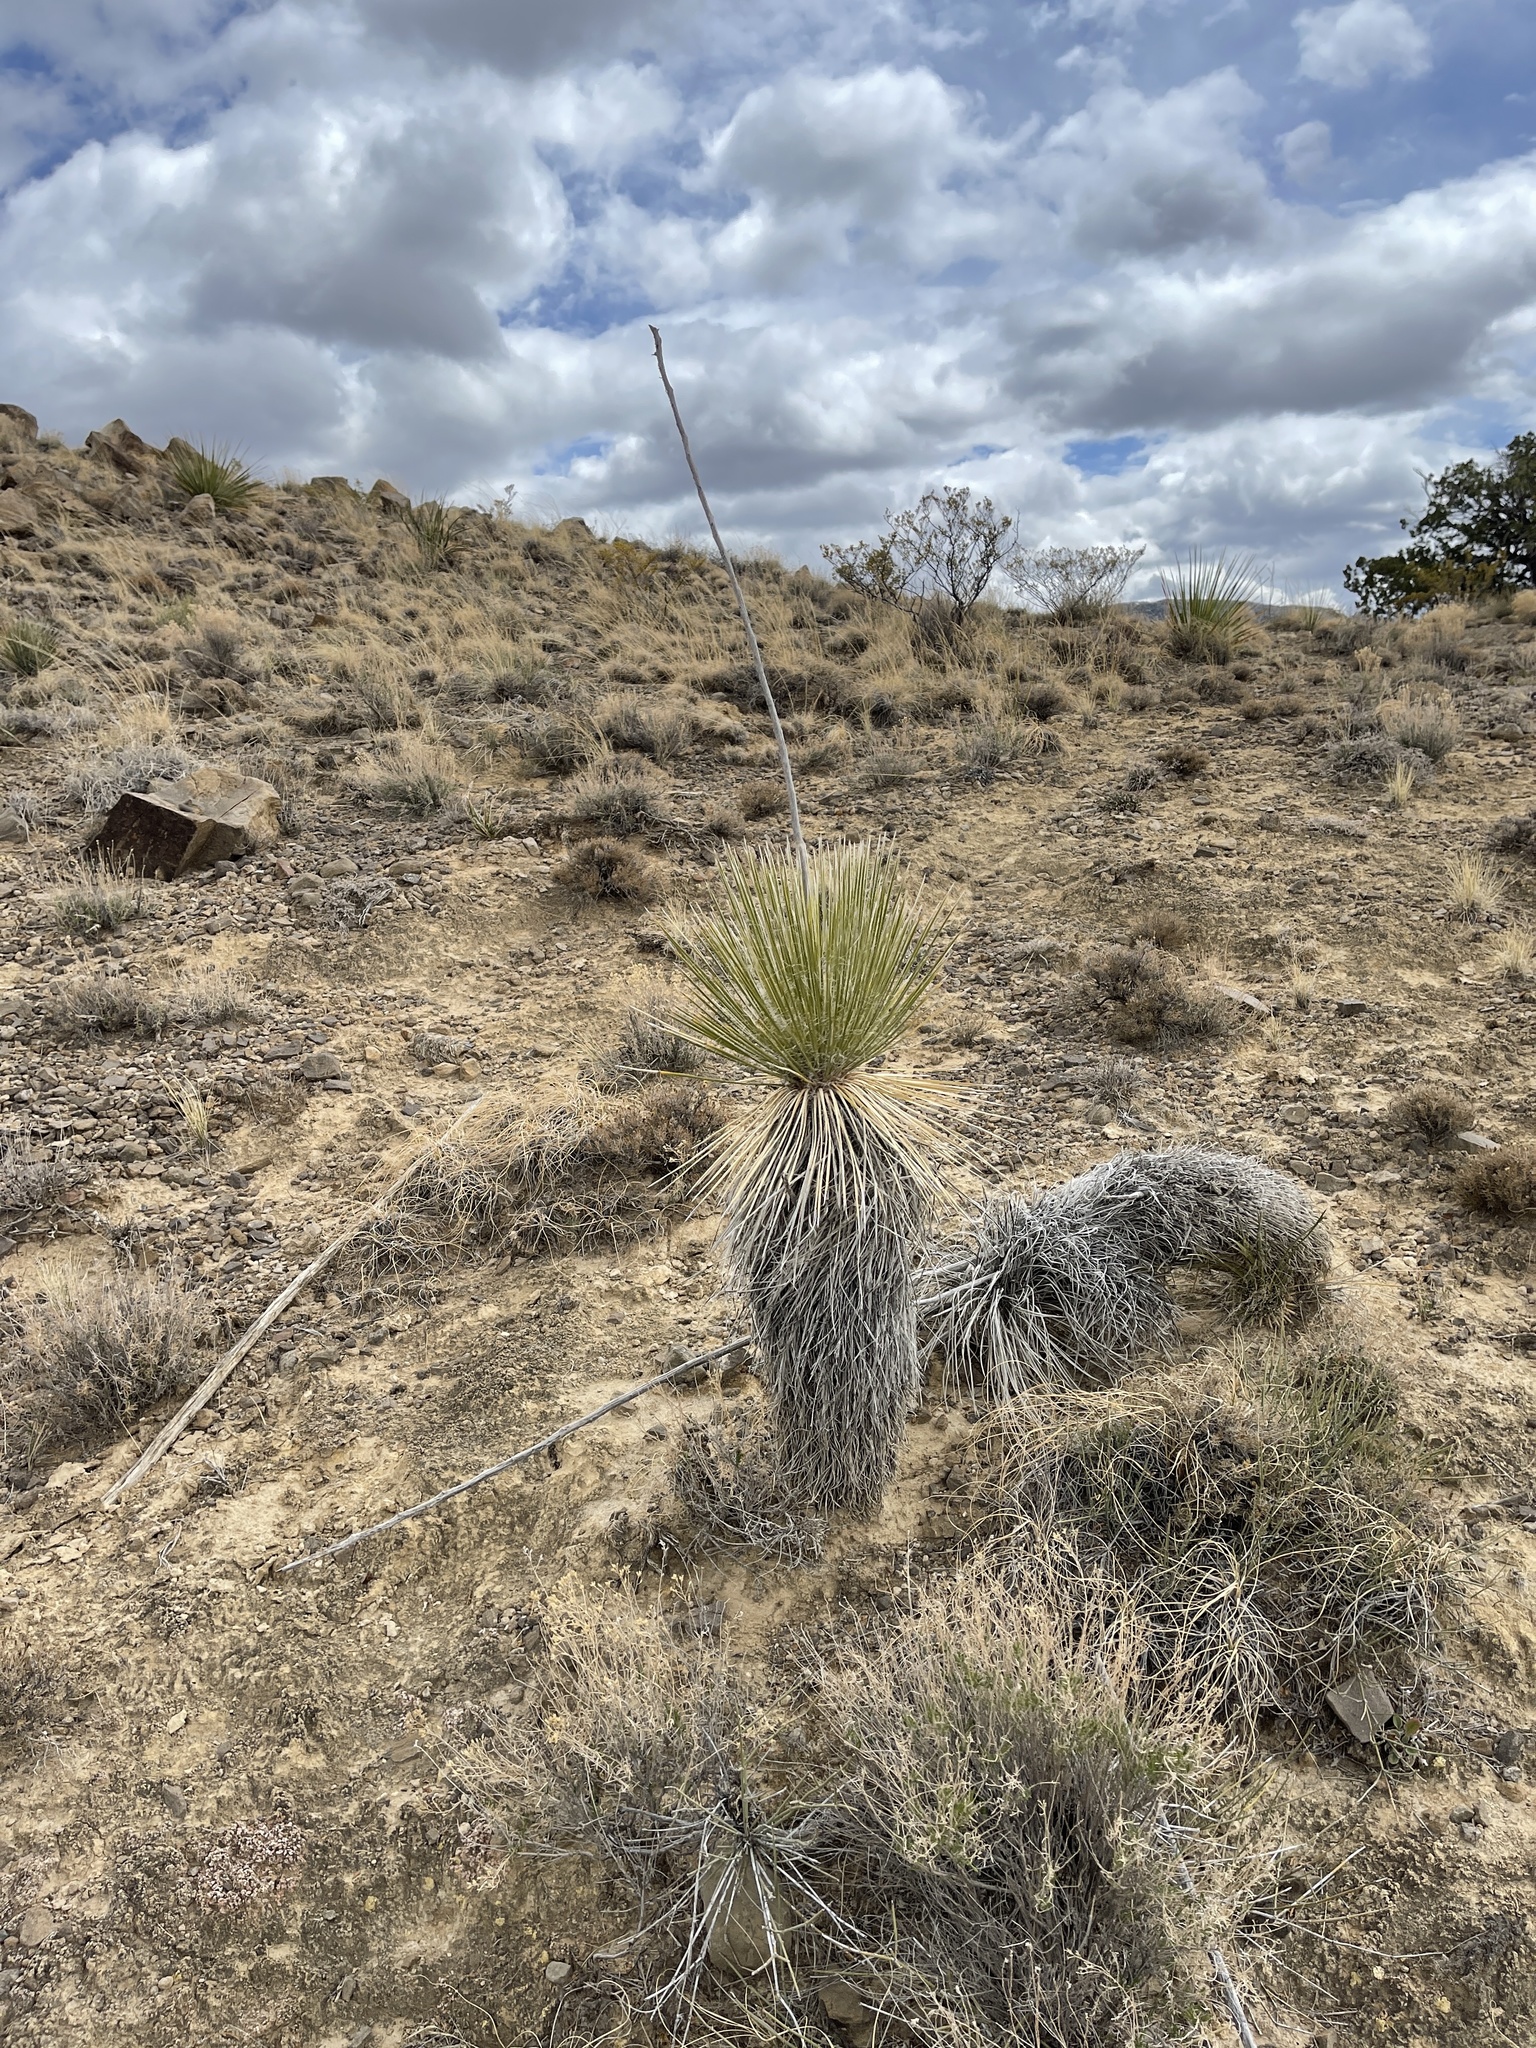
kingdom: Plantae
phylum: Tracheophyta
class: Liliopsida
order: Asparagales
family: Asparagaceae
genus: Yucca
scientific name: Yucca elata
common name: Palmella
